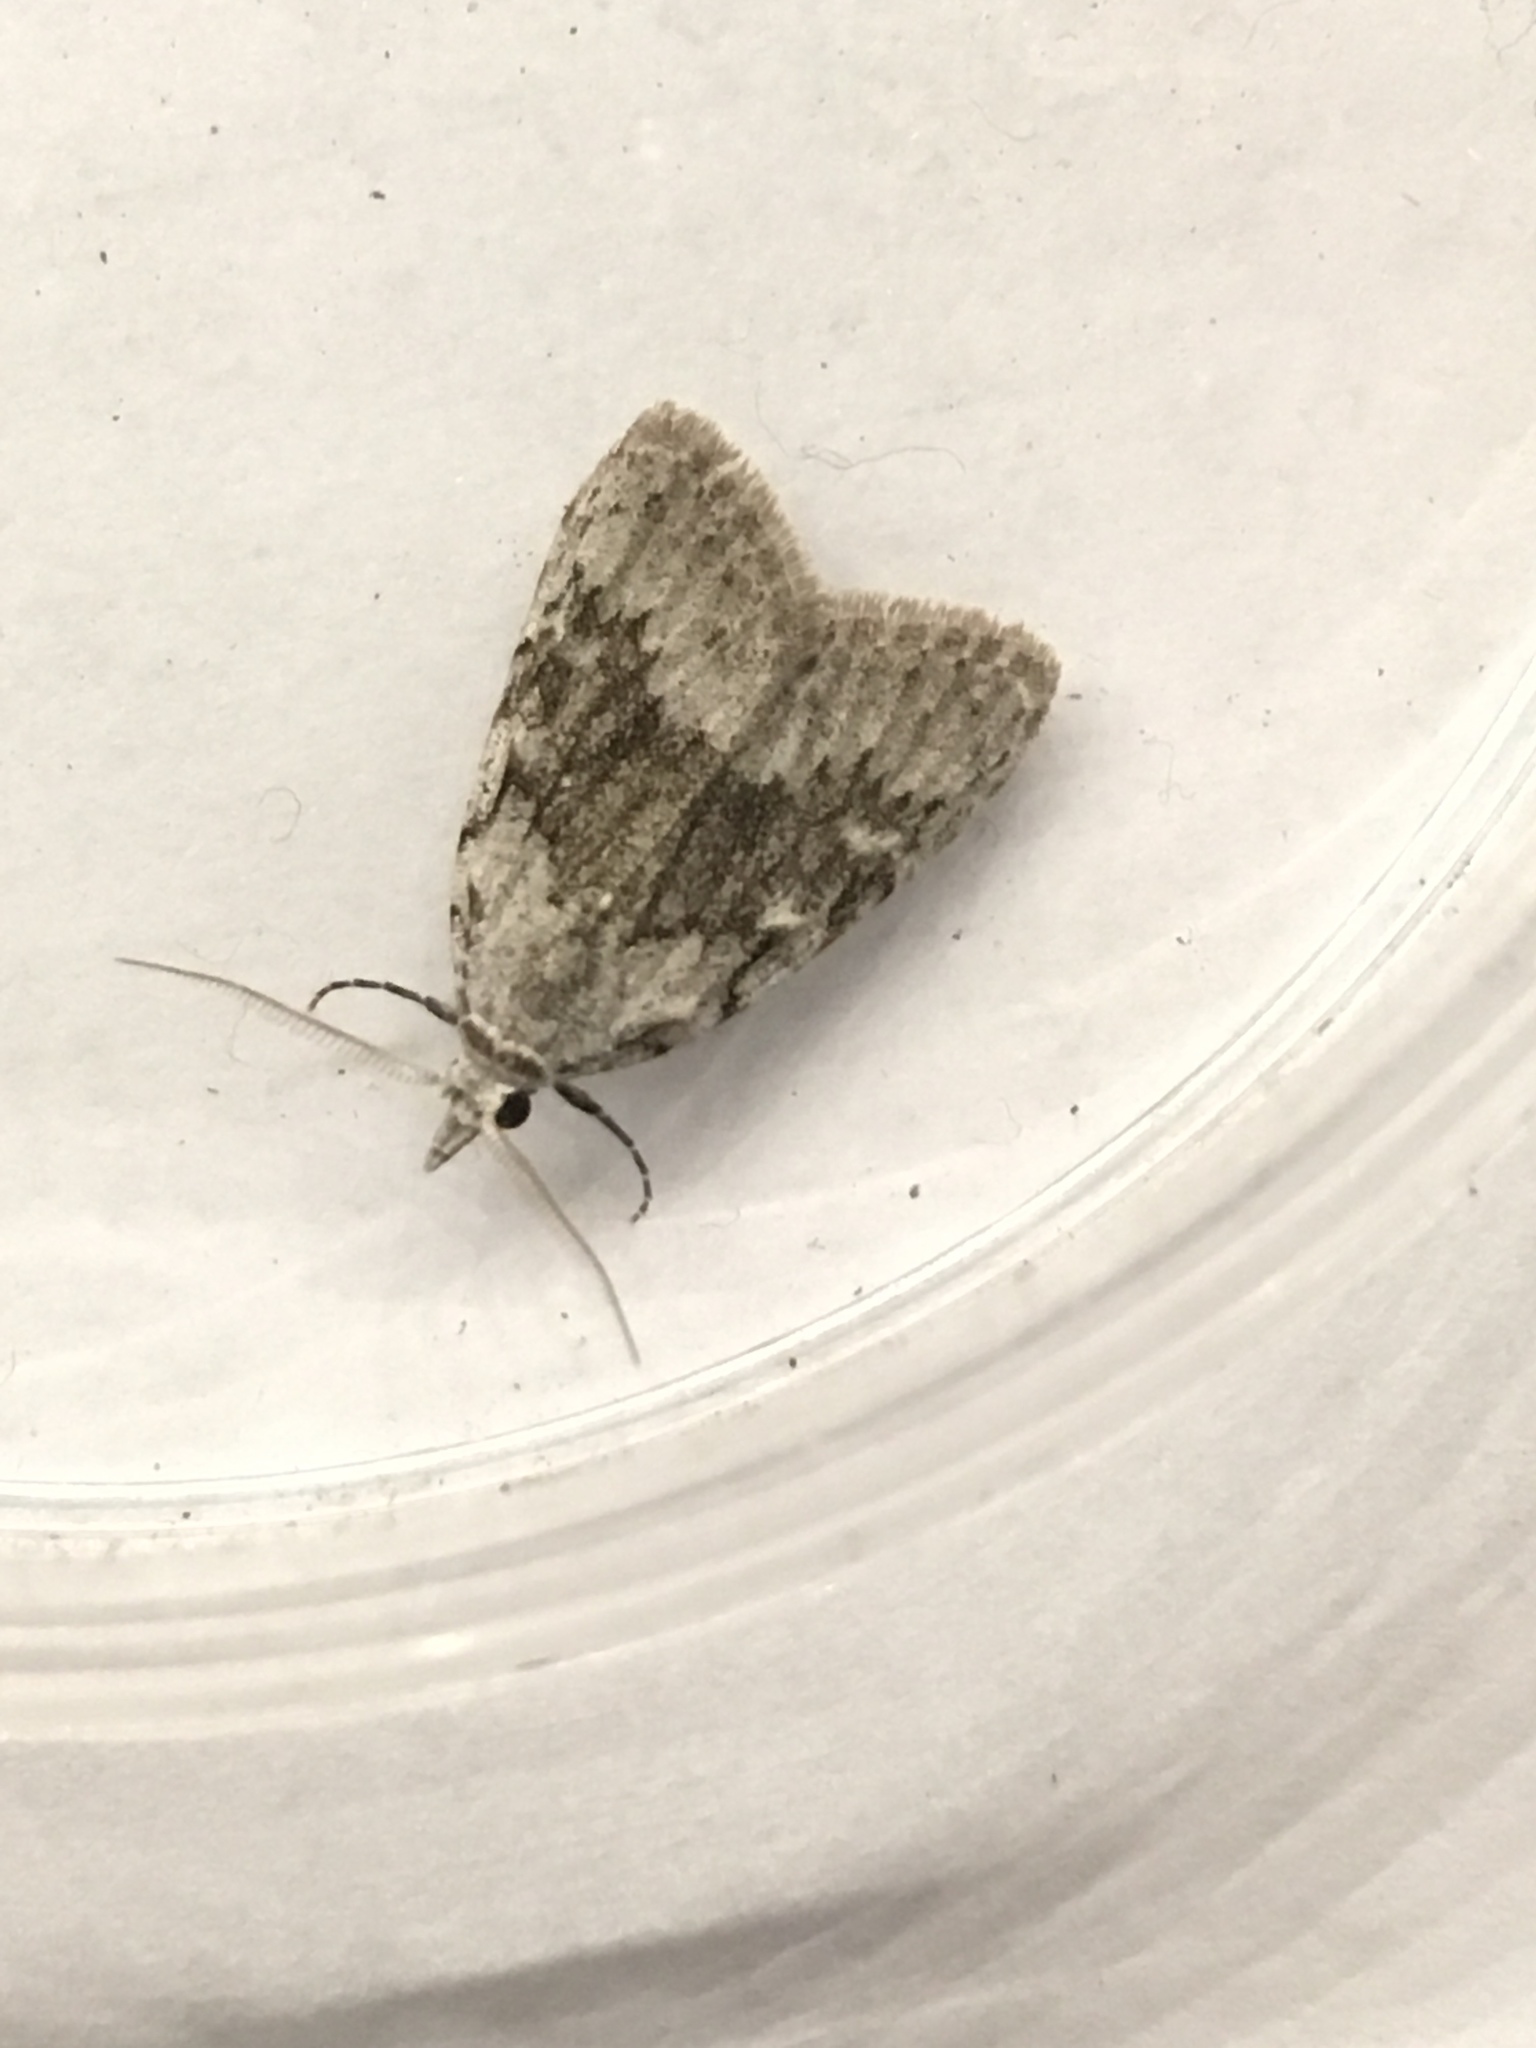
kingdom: Animalia
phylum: Arthropoda
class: Insecta
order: Lepidoptera
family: Nolidae
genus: Nola
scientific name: Nola clethrae
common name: Sweet pepperbush nola moth
